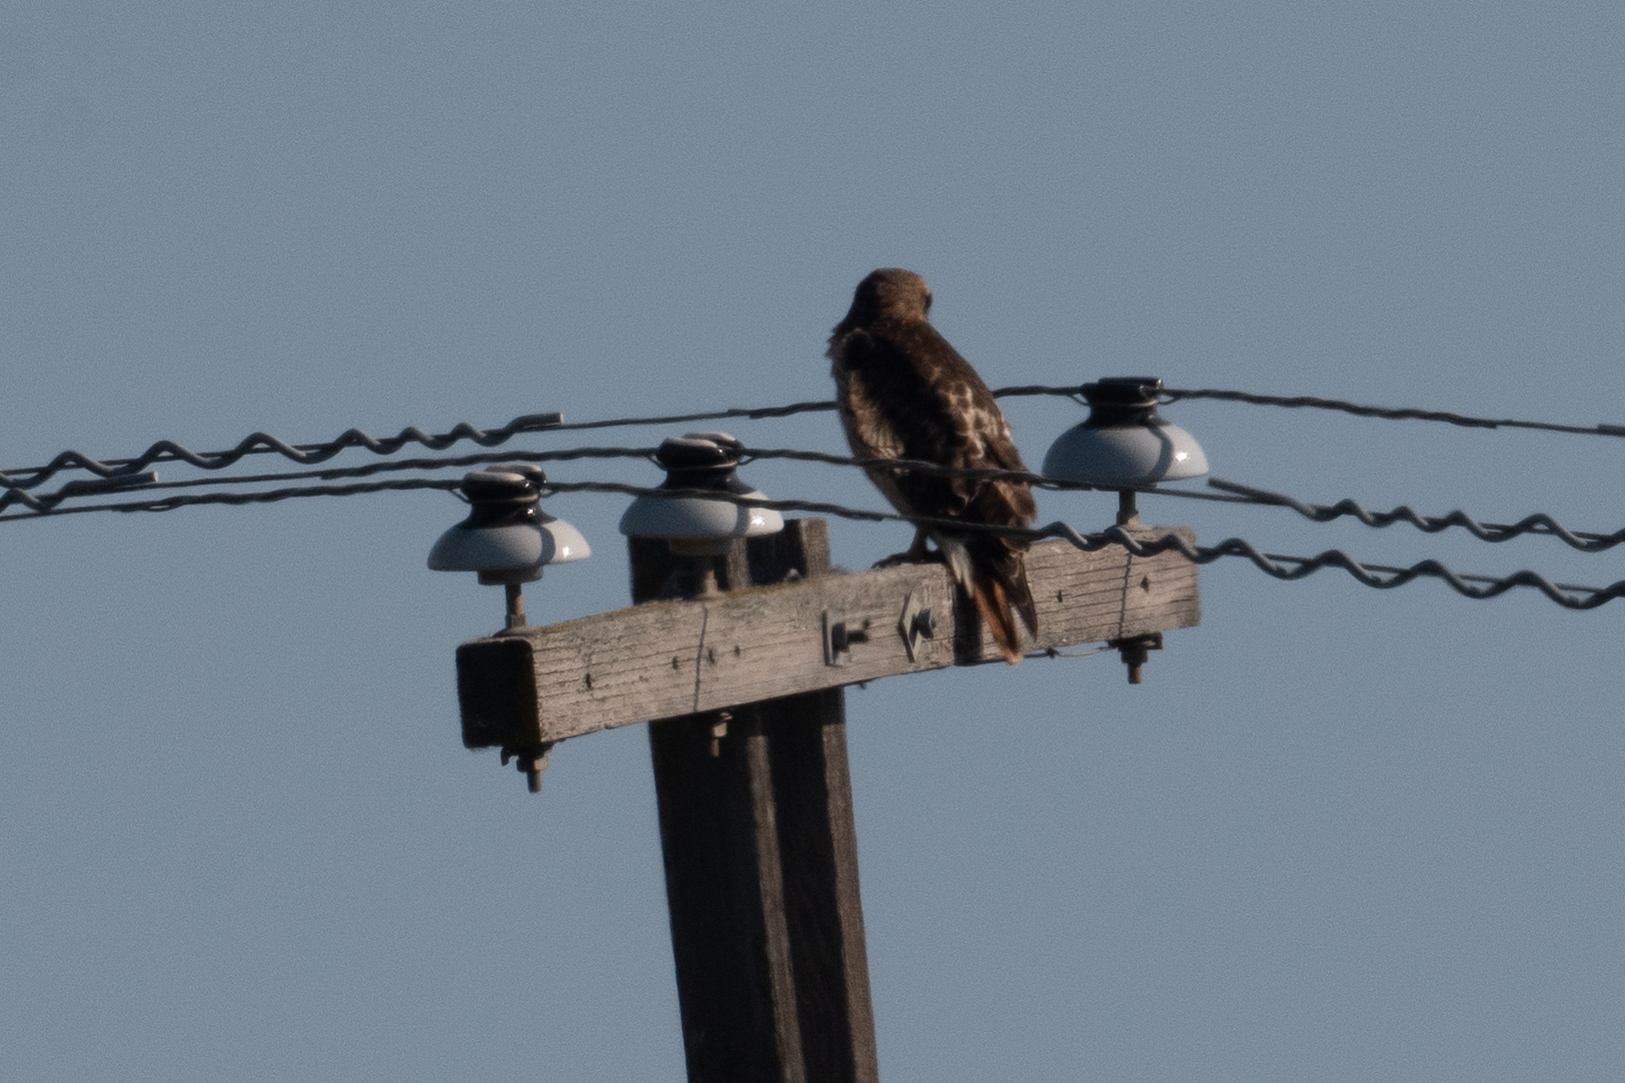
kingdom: Animalia
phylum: Chordata
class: Aves
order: Accipitriformes
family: Accipitridae
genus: Buteo
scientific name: Buteo jamaicensis
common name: Red-tailed hawk
